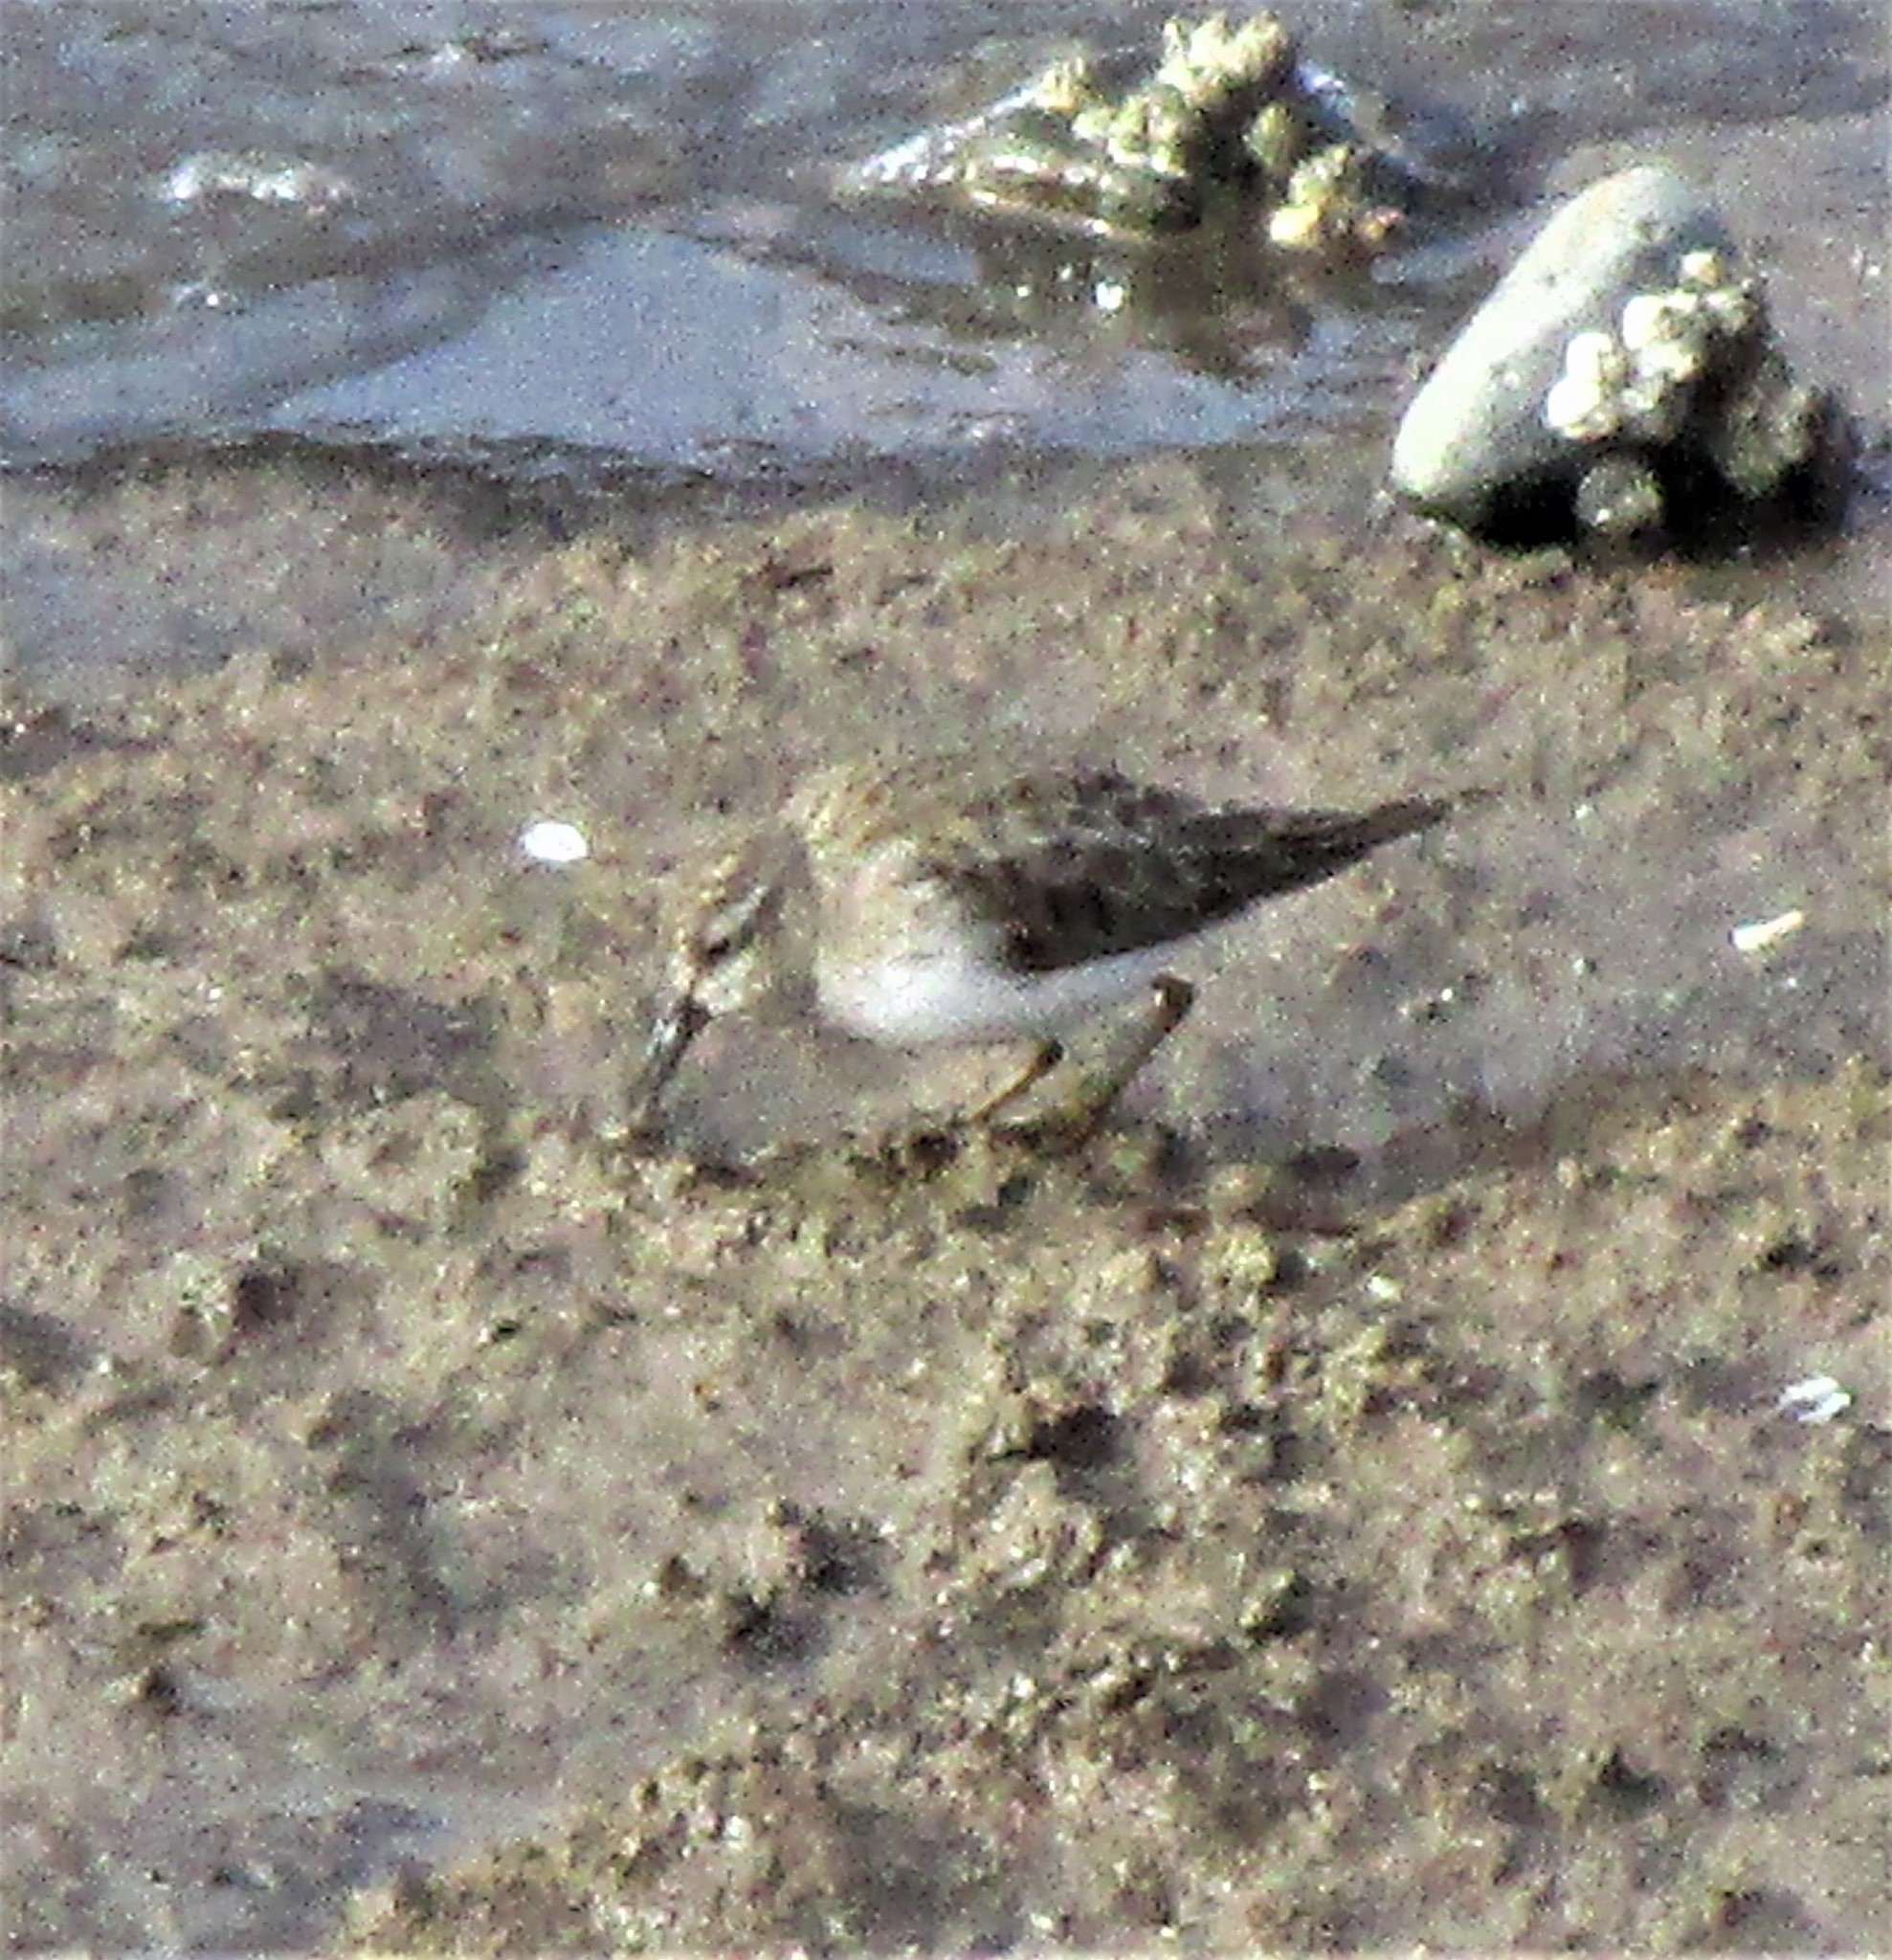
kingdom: Animalia
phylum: Chordata
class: Aves
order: Charadriiformes
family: Scolopacidae
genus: Calidris
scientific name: Calidris mauri
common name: Western sandpiper
